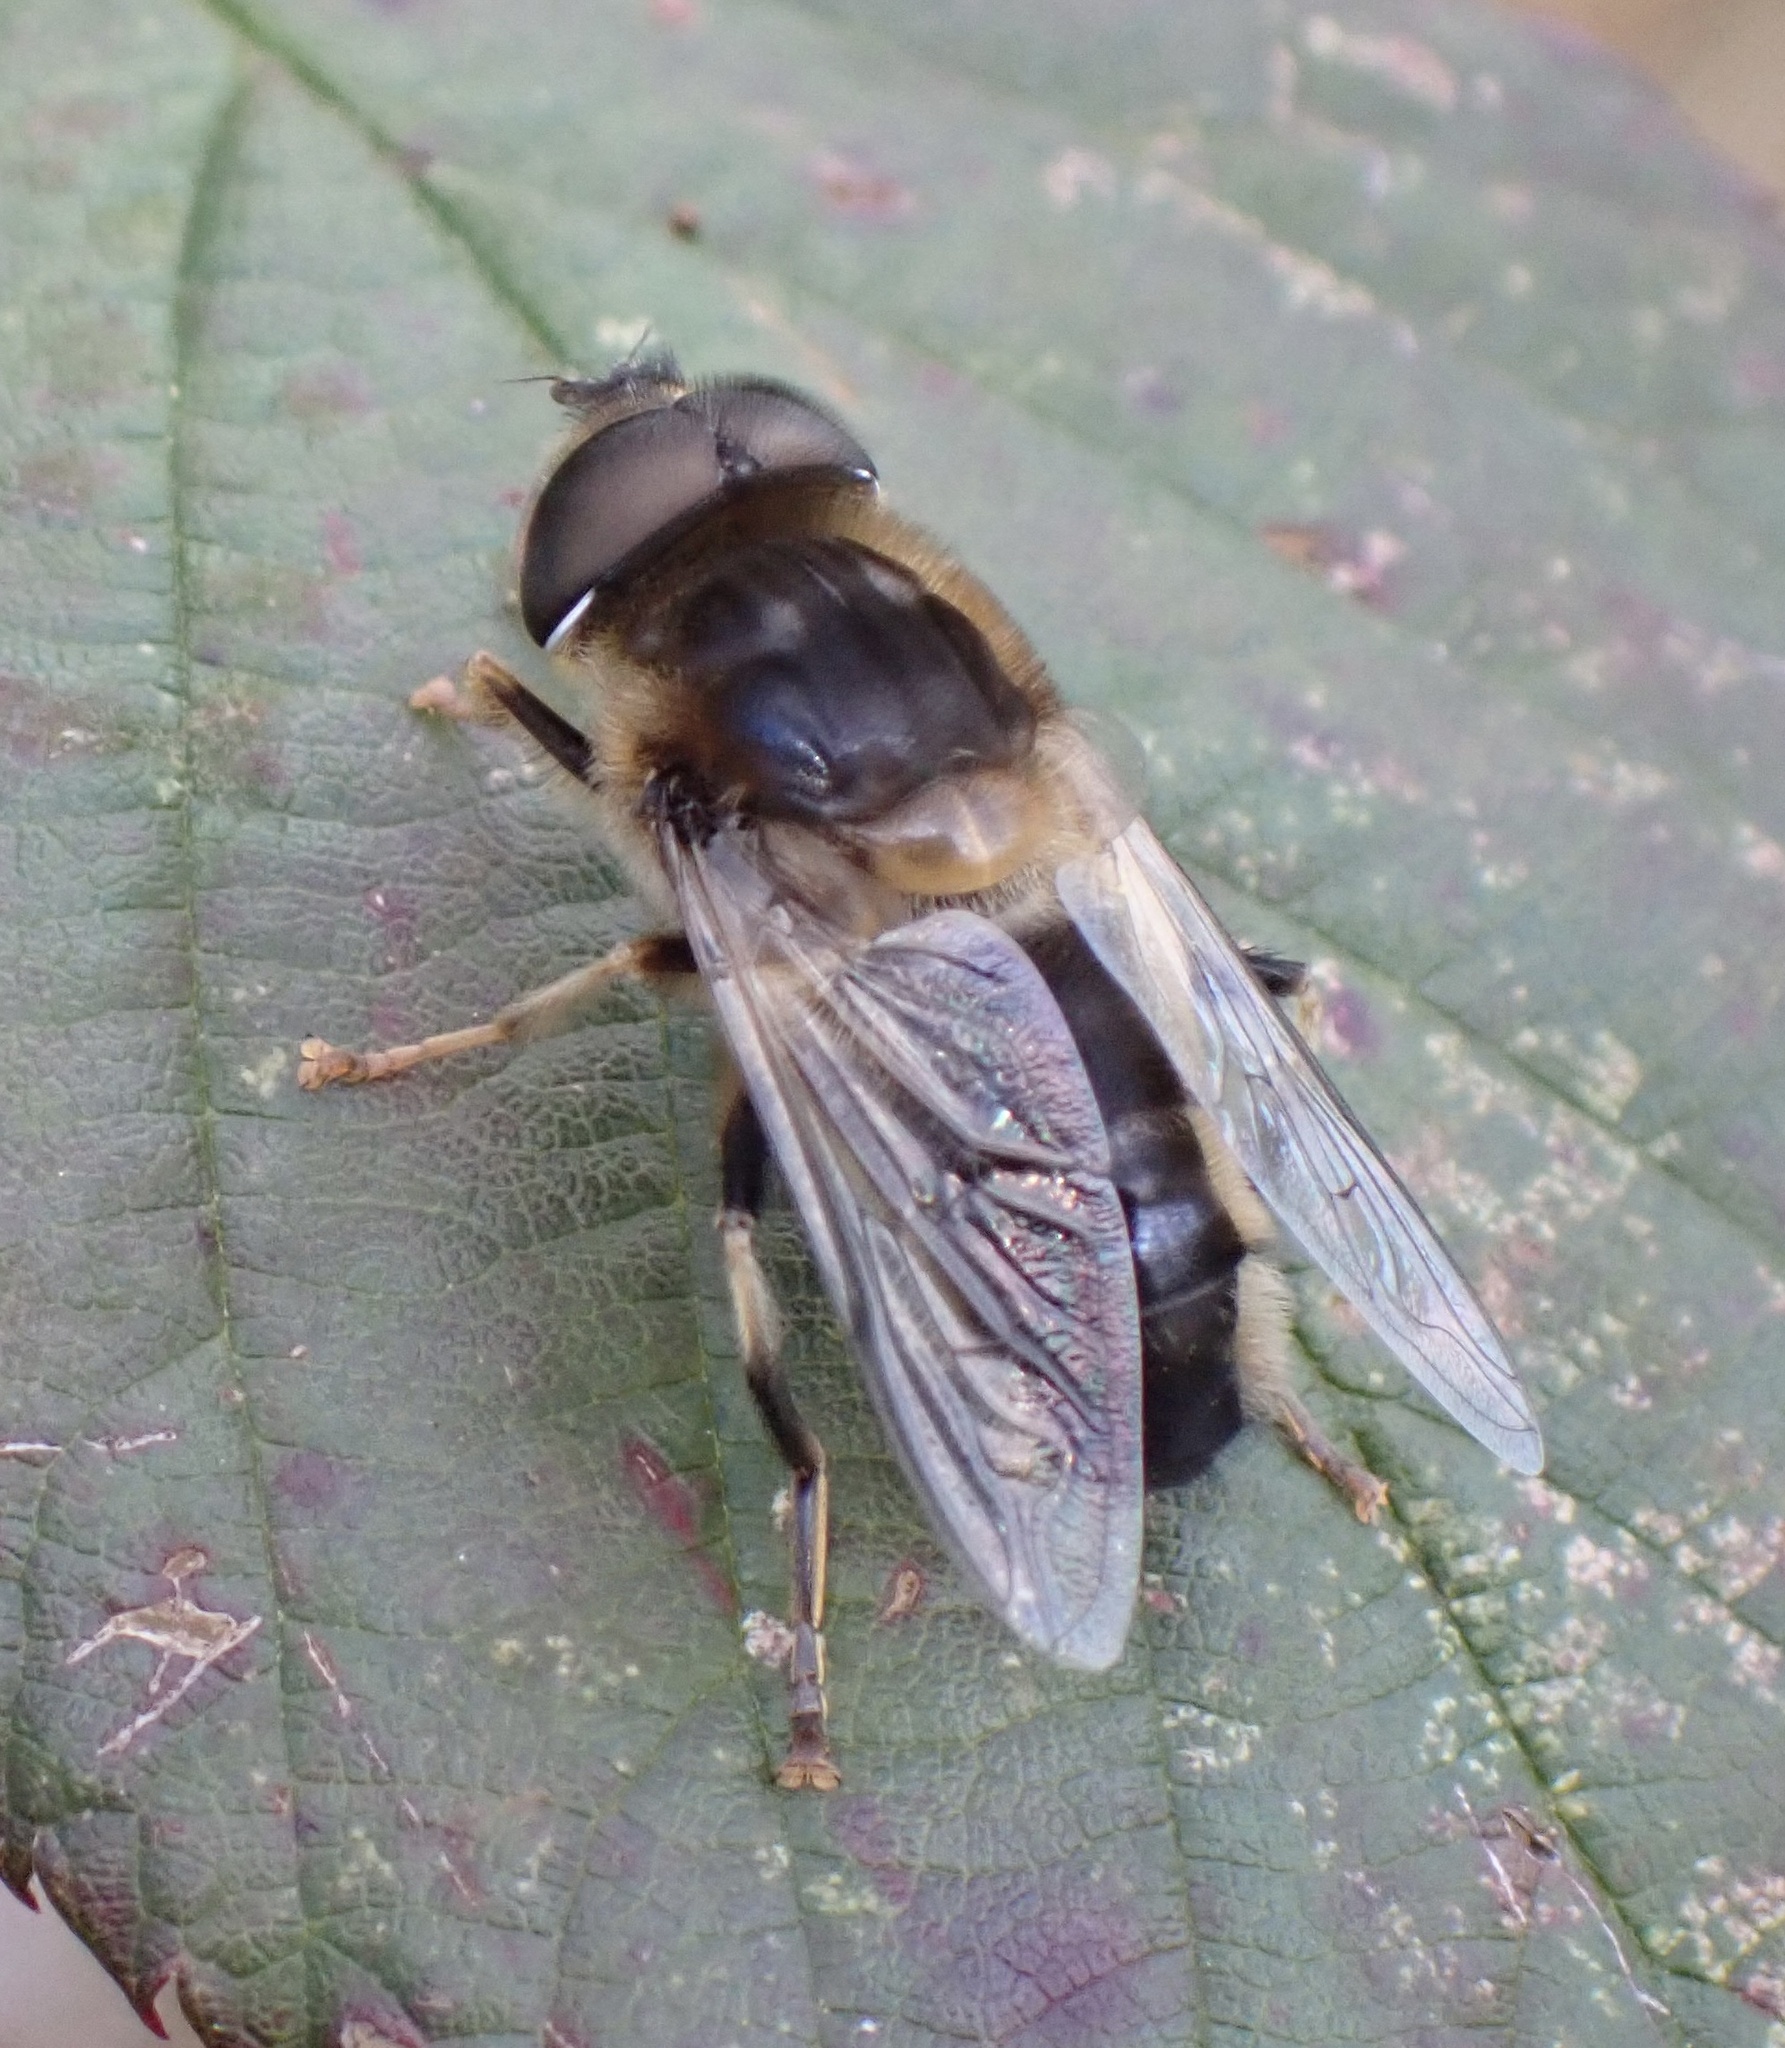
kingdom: Animalia
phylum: Arthropoda
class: Insecta
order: Diptera
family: Syrphidae
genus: Eristalis
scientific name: Eristalis pertinax
